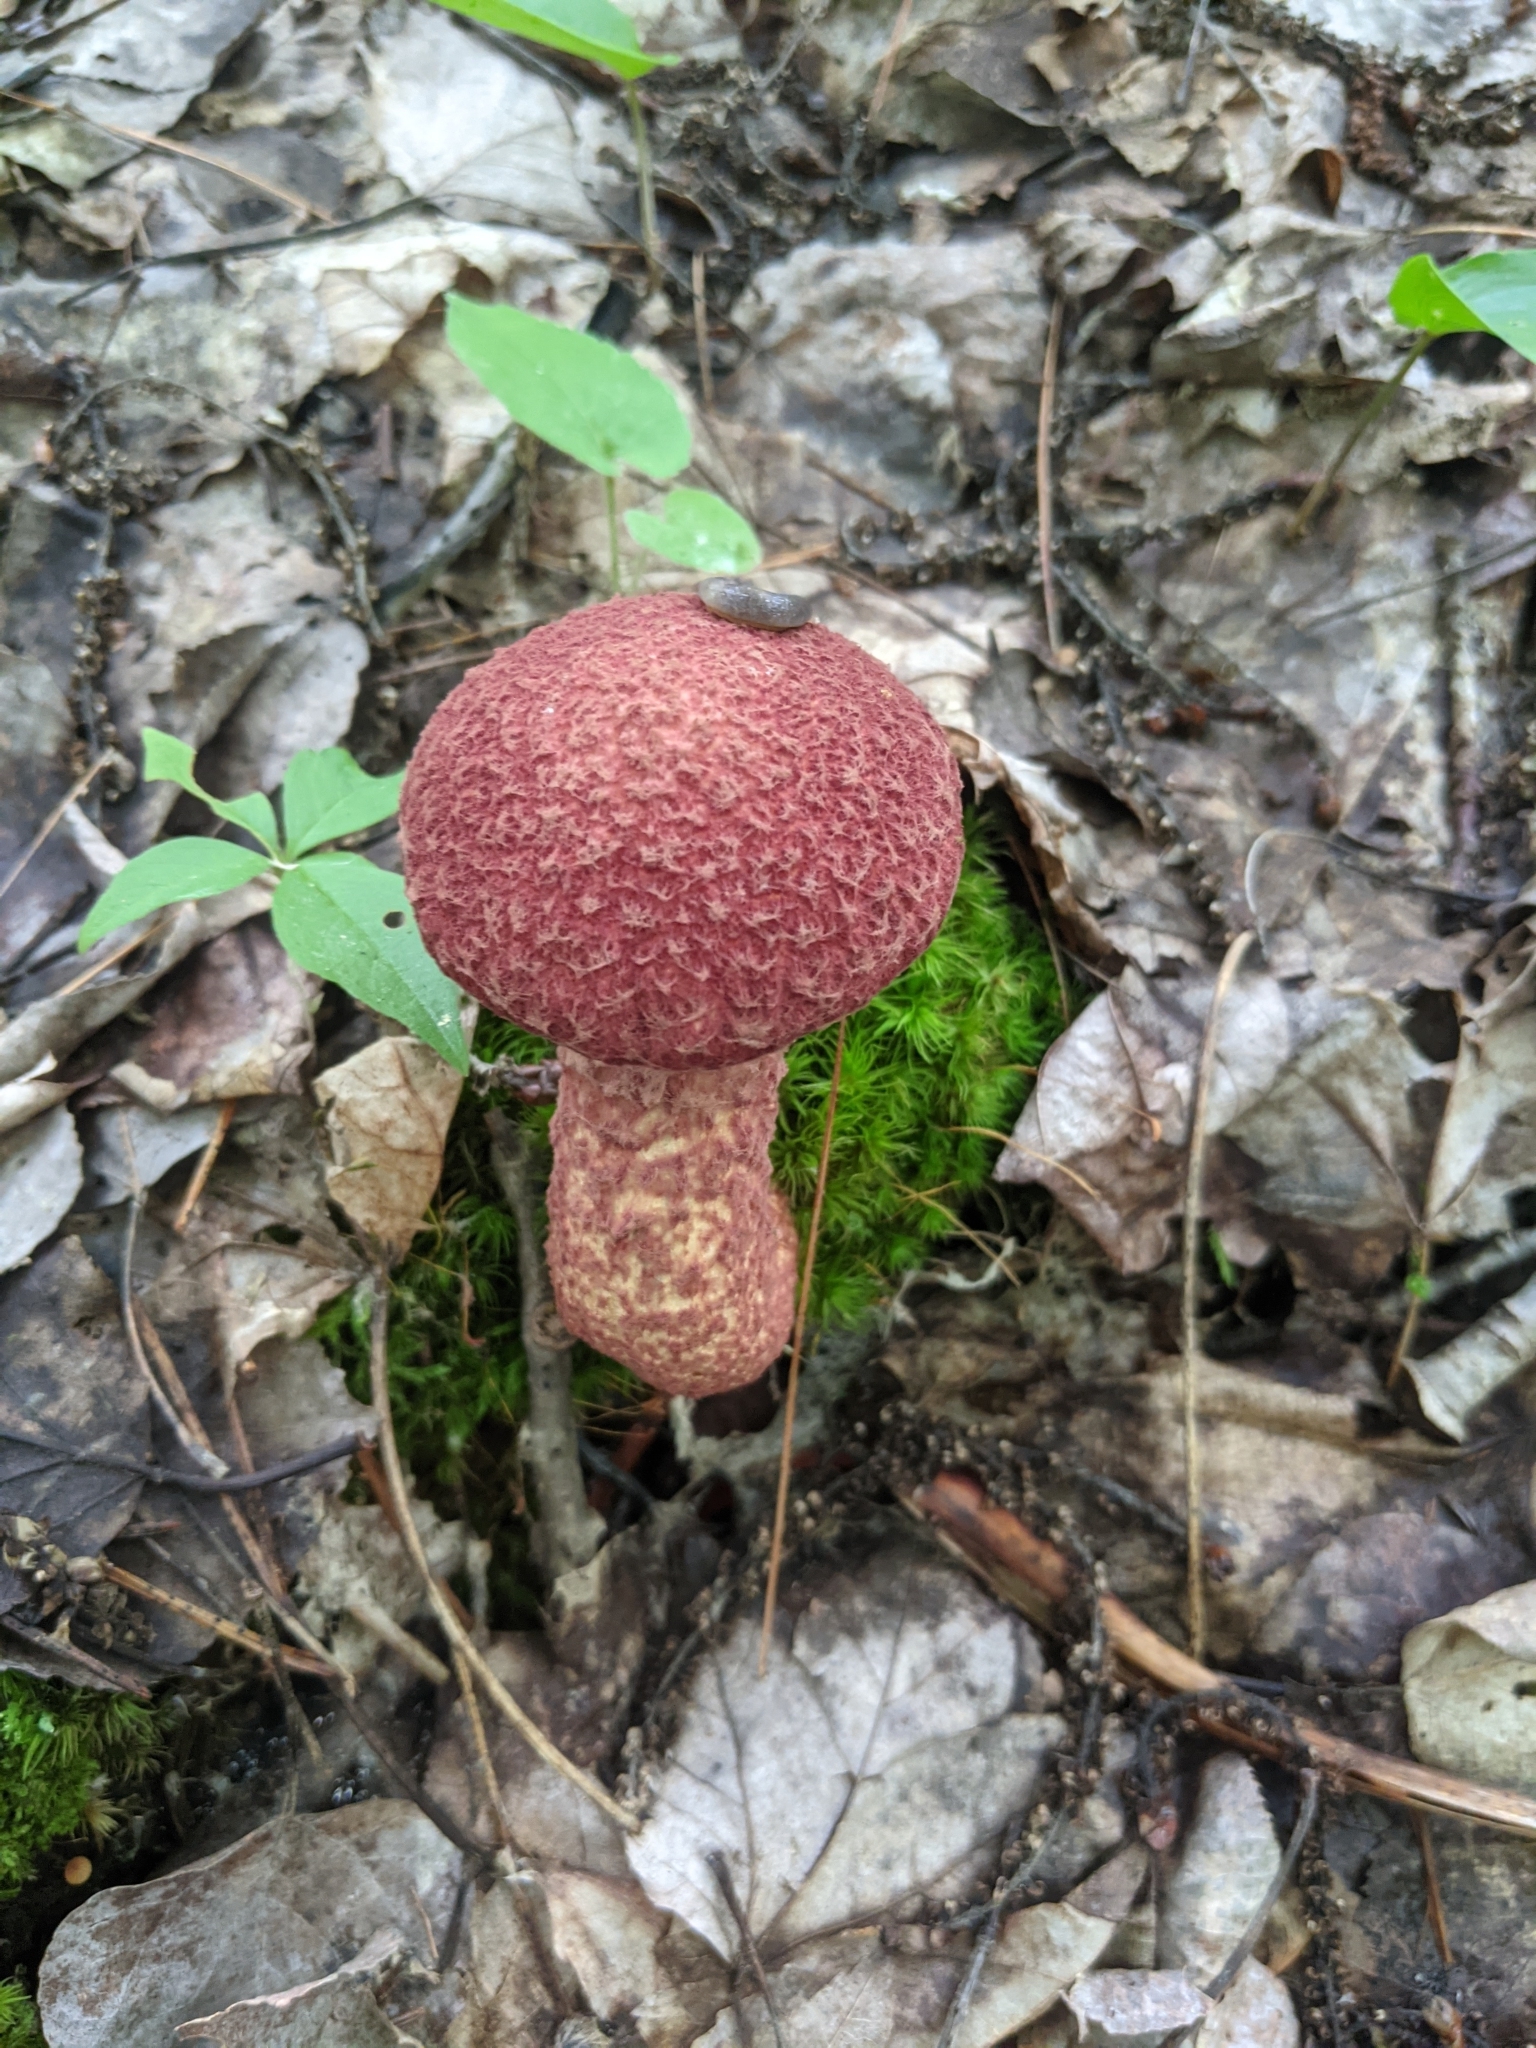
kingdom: Fungi
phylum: Basidiomycota
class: Agaricomycetes
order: Boletales
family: Suillaceae
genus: Suillus
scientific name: Suillus spraguei
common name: Painted suillus
